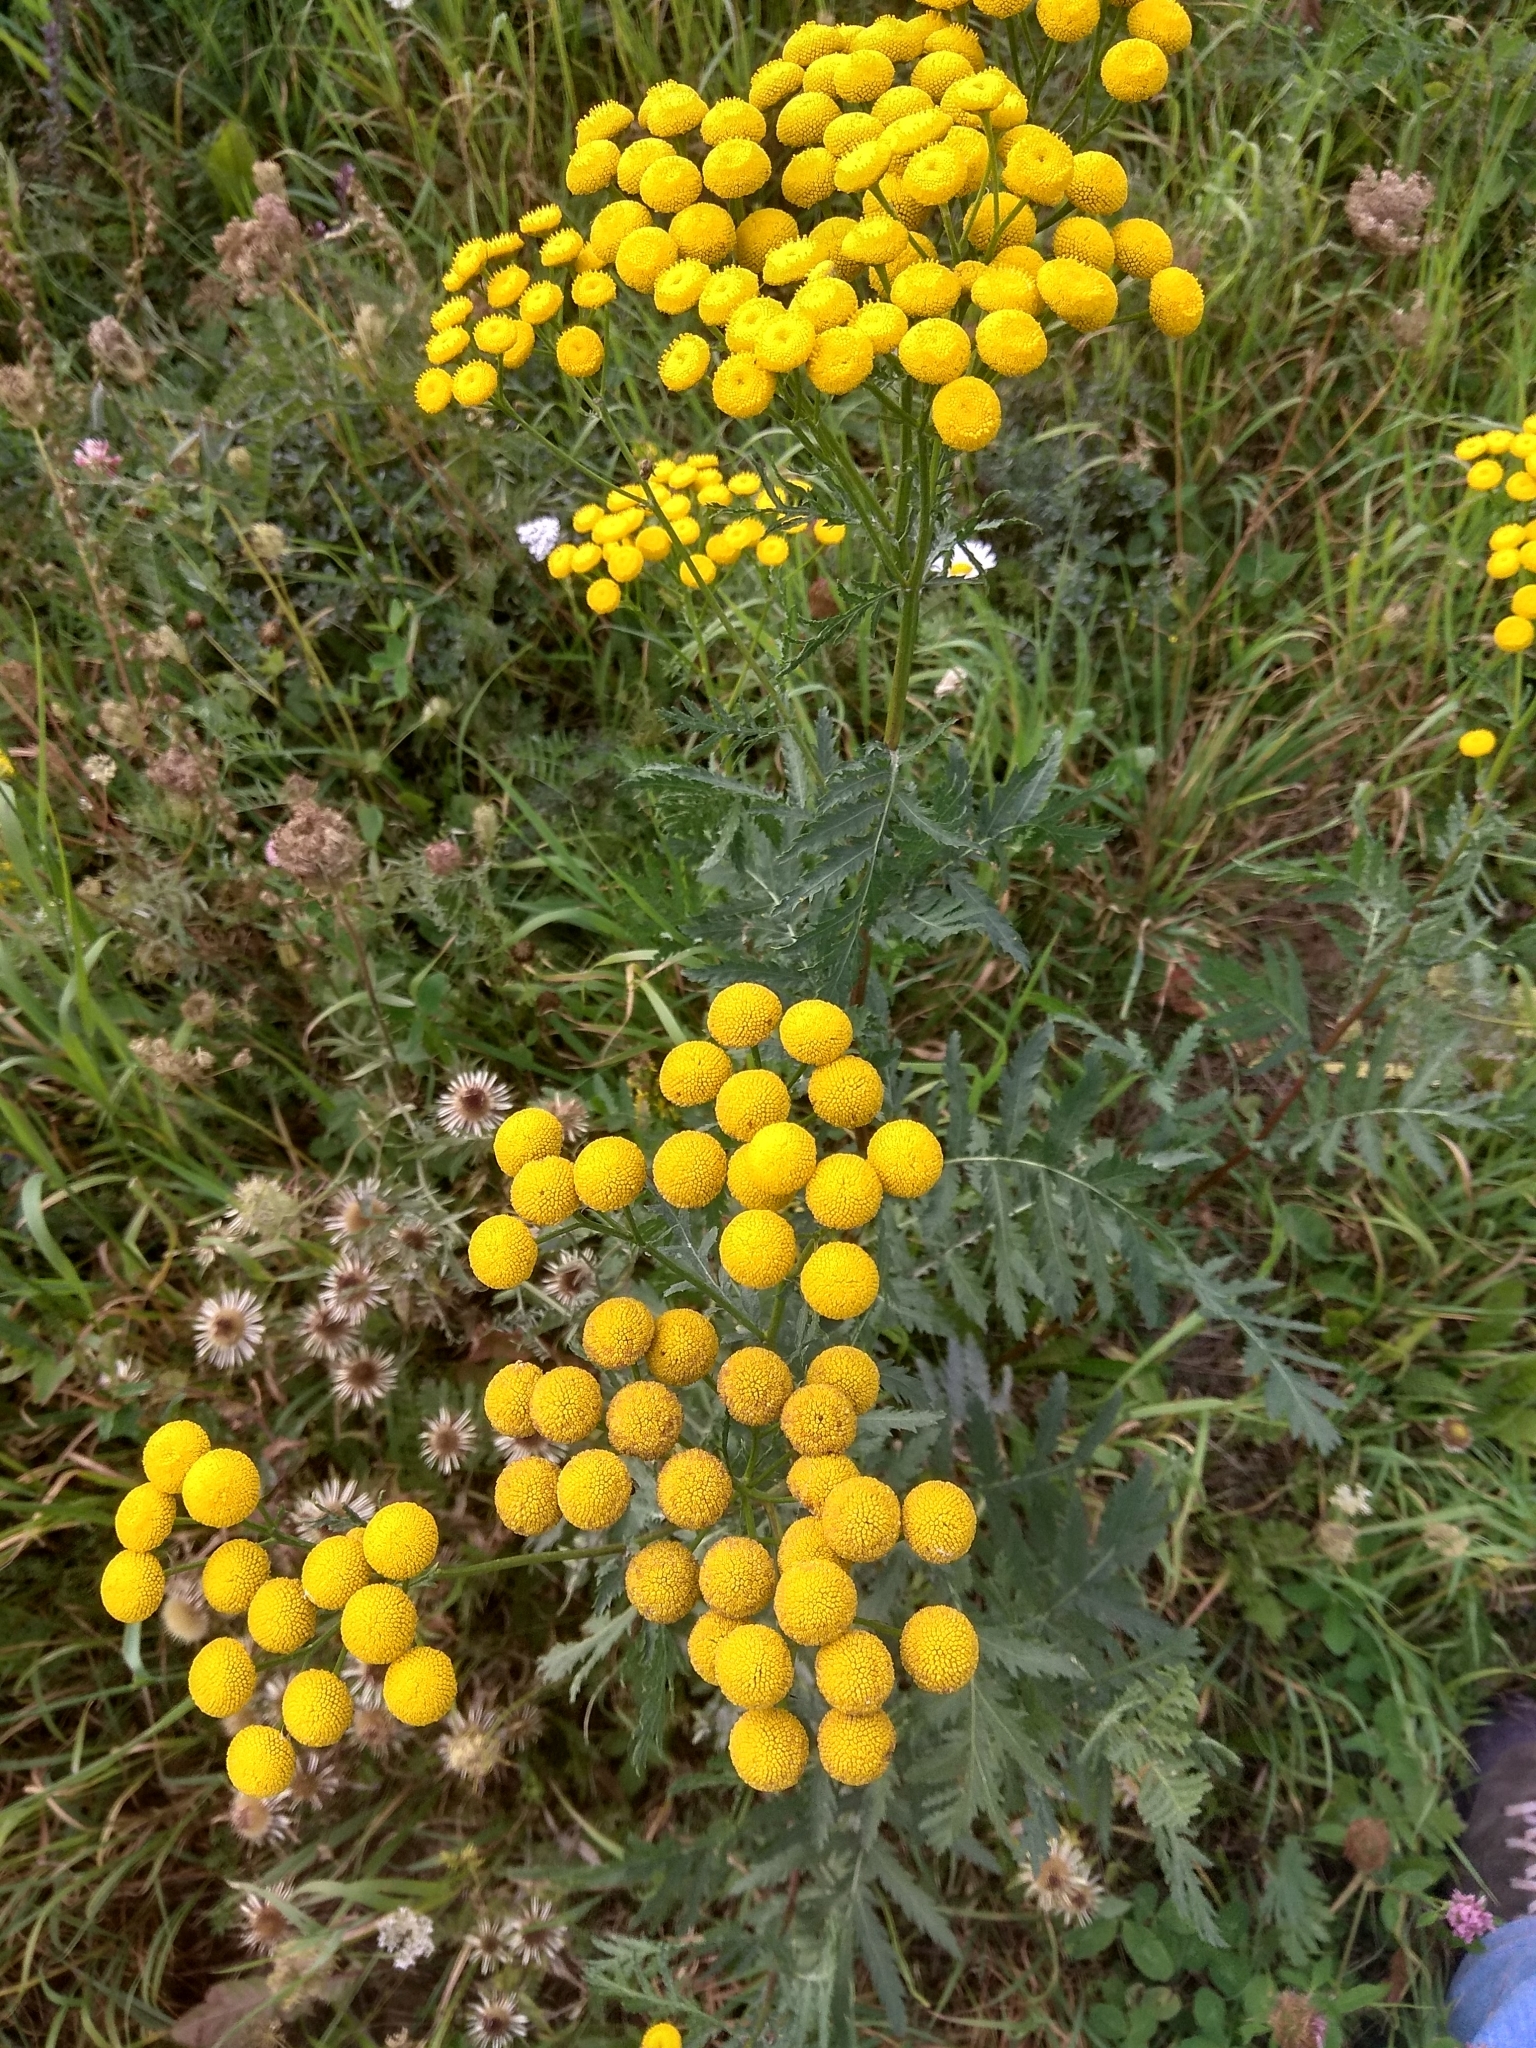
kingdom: Plantae
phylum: Tracheophyta
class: Magnoliopsida
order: Asterales
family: Asteraceae
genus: Tanacetum
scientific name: Tanacetum vulgare
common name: Common tansy
